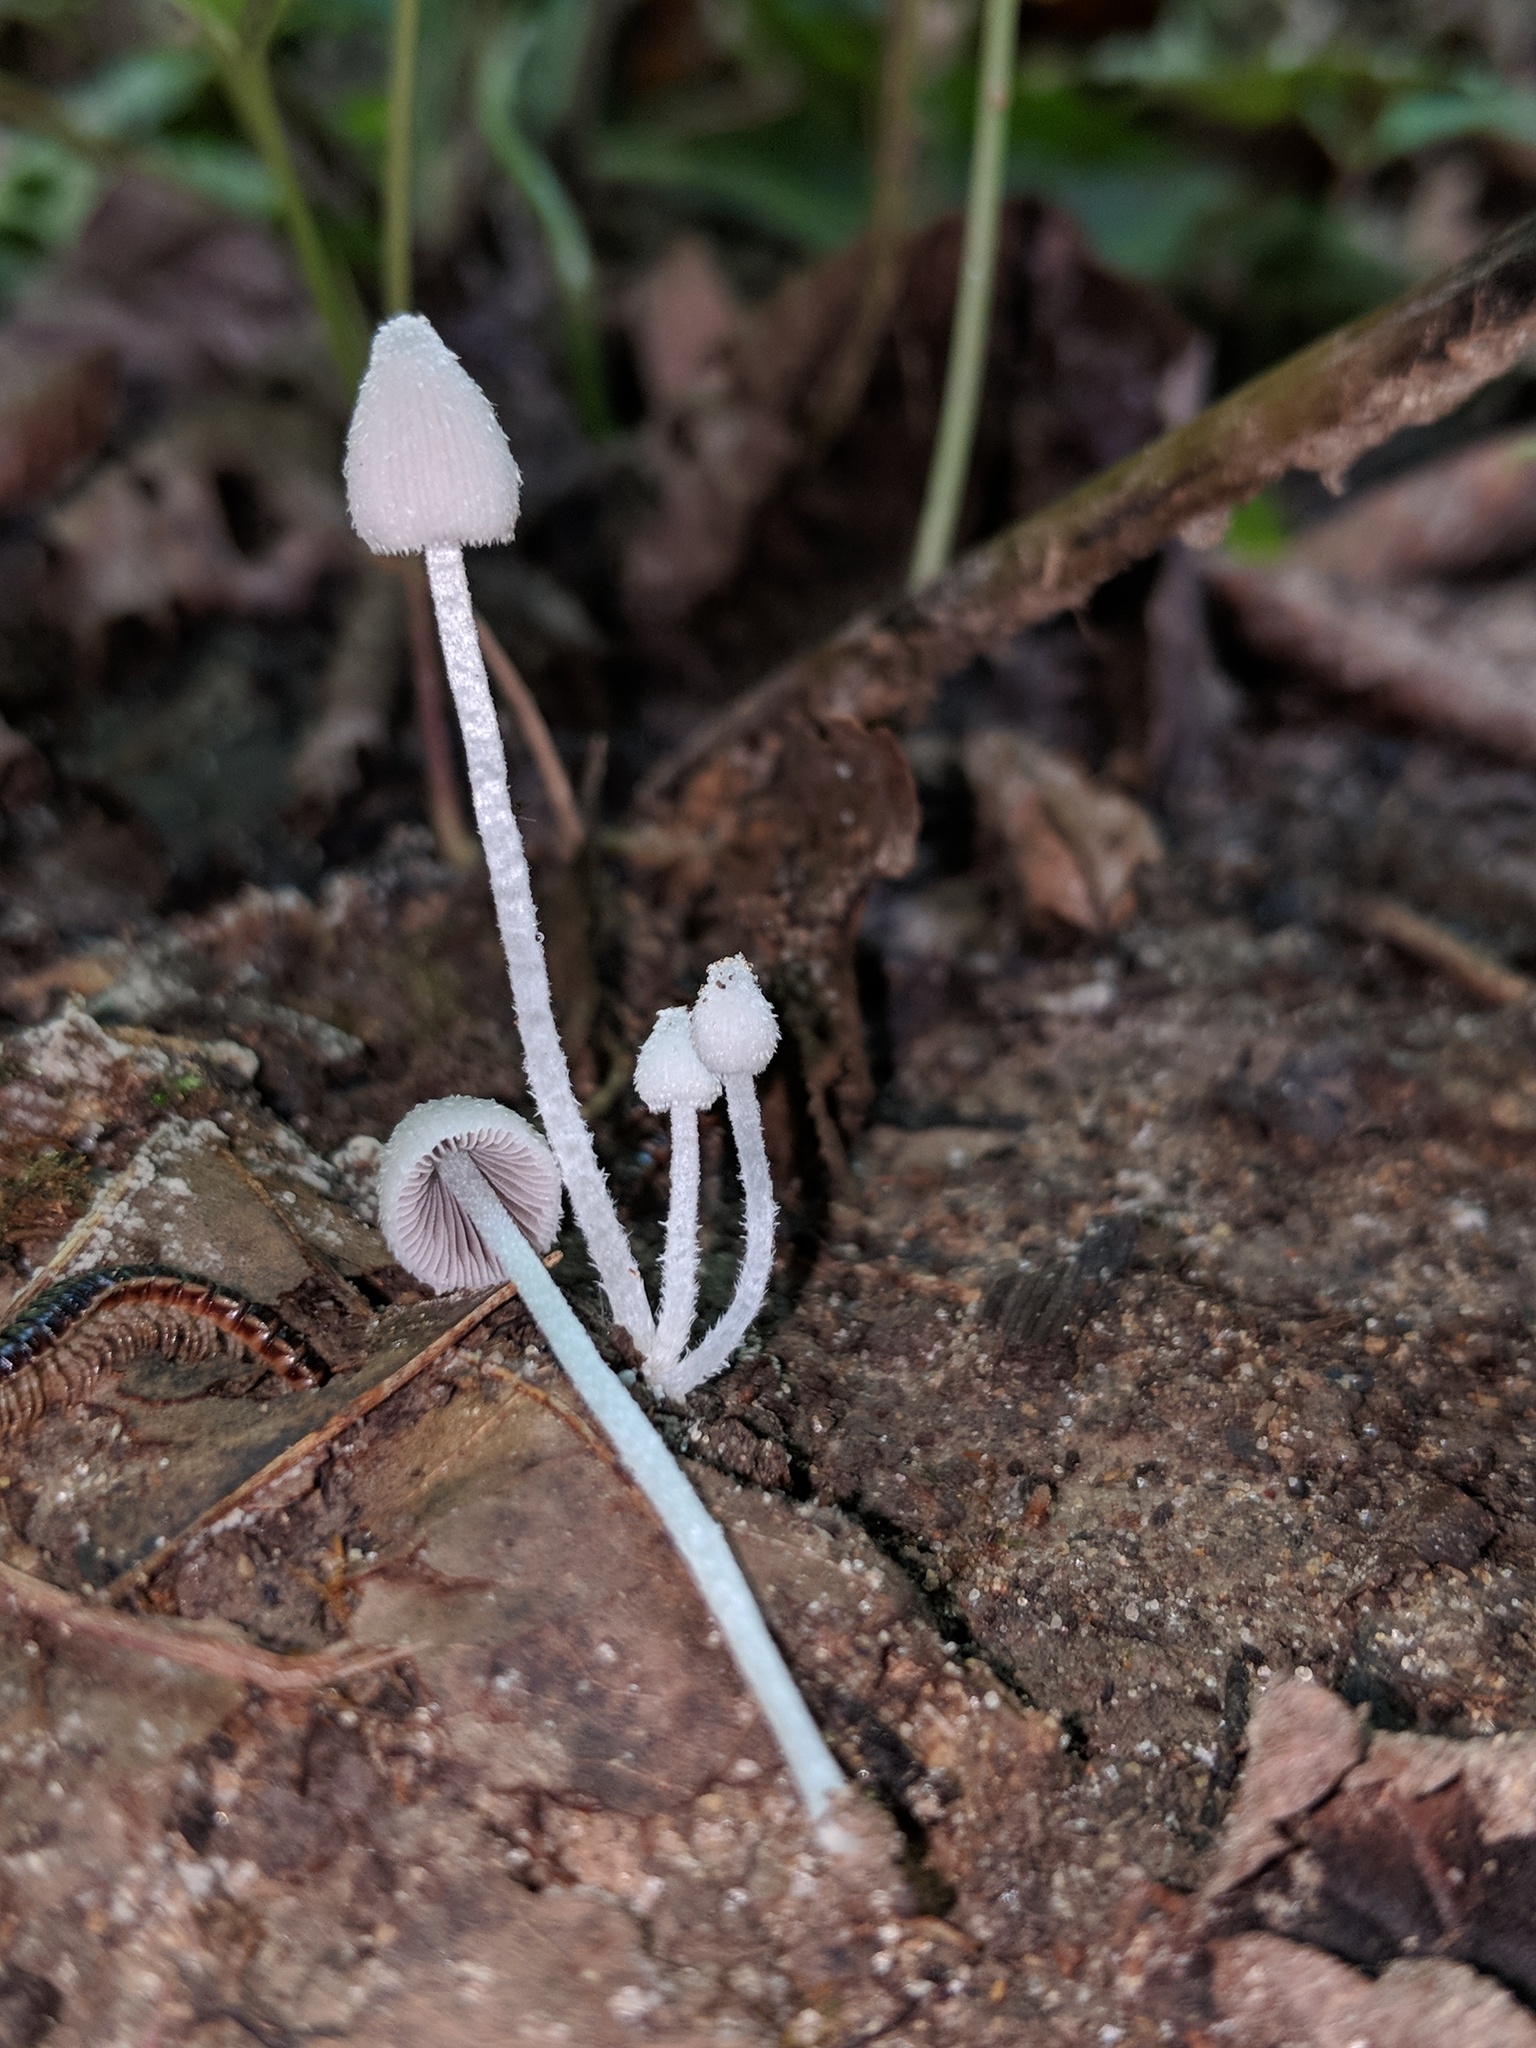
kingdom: Fungi
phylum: Basidiomycota
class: Agaricomycetes
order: Agaricales
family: Psathyrellaceae
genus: Psathyrella
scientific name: Psathyrella debilis
